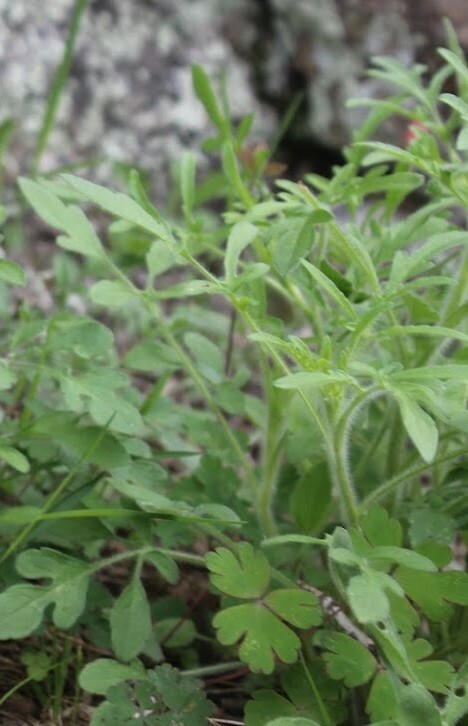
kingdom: Plantae
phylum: Tracheophyta
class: Magnoliopsida
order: Asterales
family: Asteraceae
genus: Rudbeckia
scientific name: Rudbeckia triloba
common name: Thin-leaved coneflower
